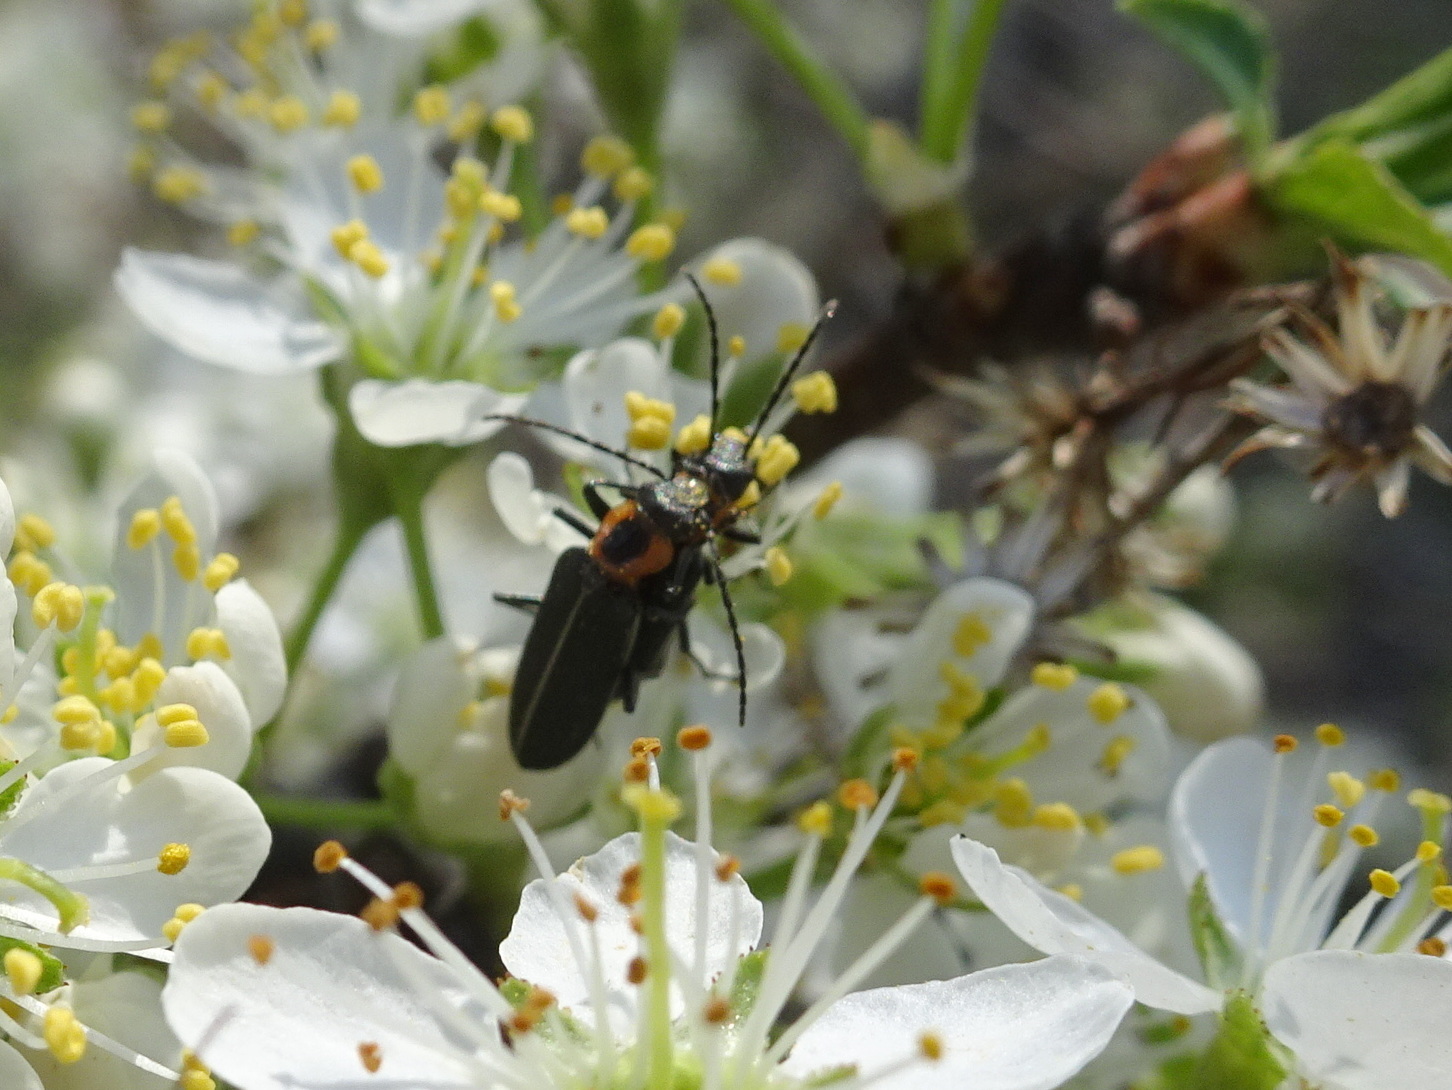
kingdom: Animalia
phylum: Arthropoda
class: Insecta
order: Coleoptera
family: Oedemeridae
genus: Ischnomera
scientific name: Ischnomera
